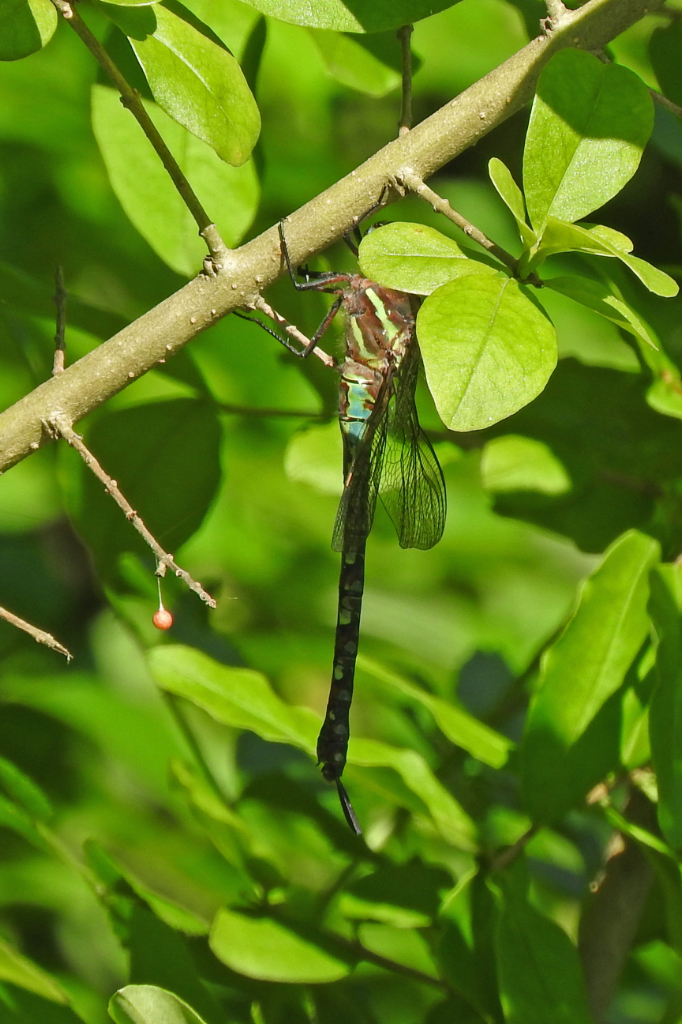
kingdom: Animalia
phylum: Arthropoda
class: Insecta
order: Odonata
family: Aeshnidae
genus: Rhionaeschna
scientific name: Rhionaeschna mutata
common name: Spatterdock darner
